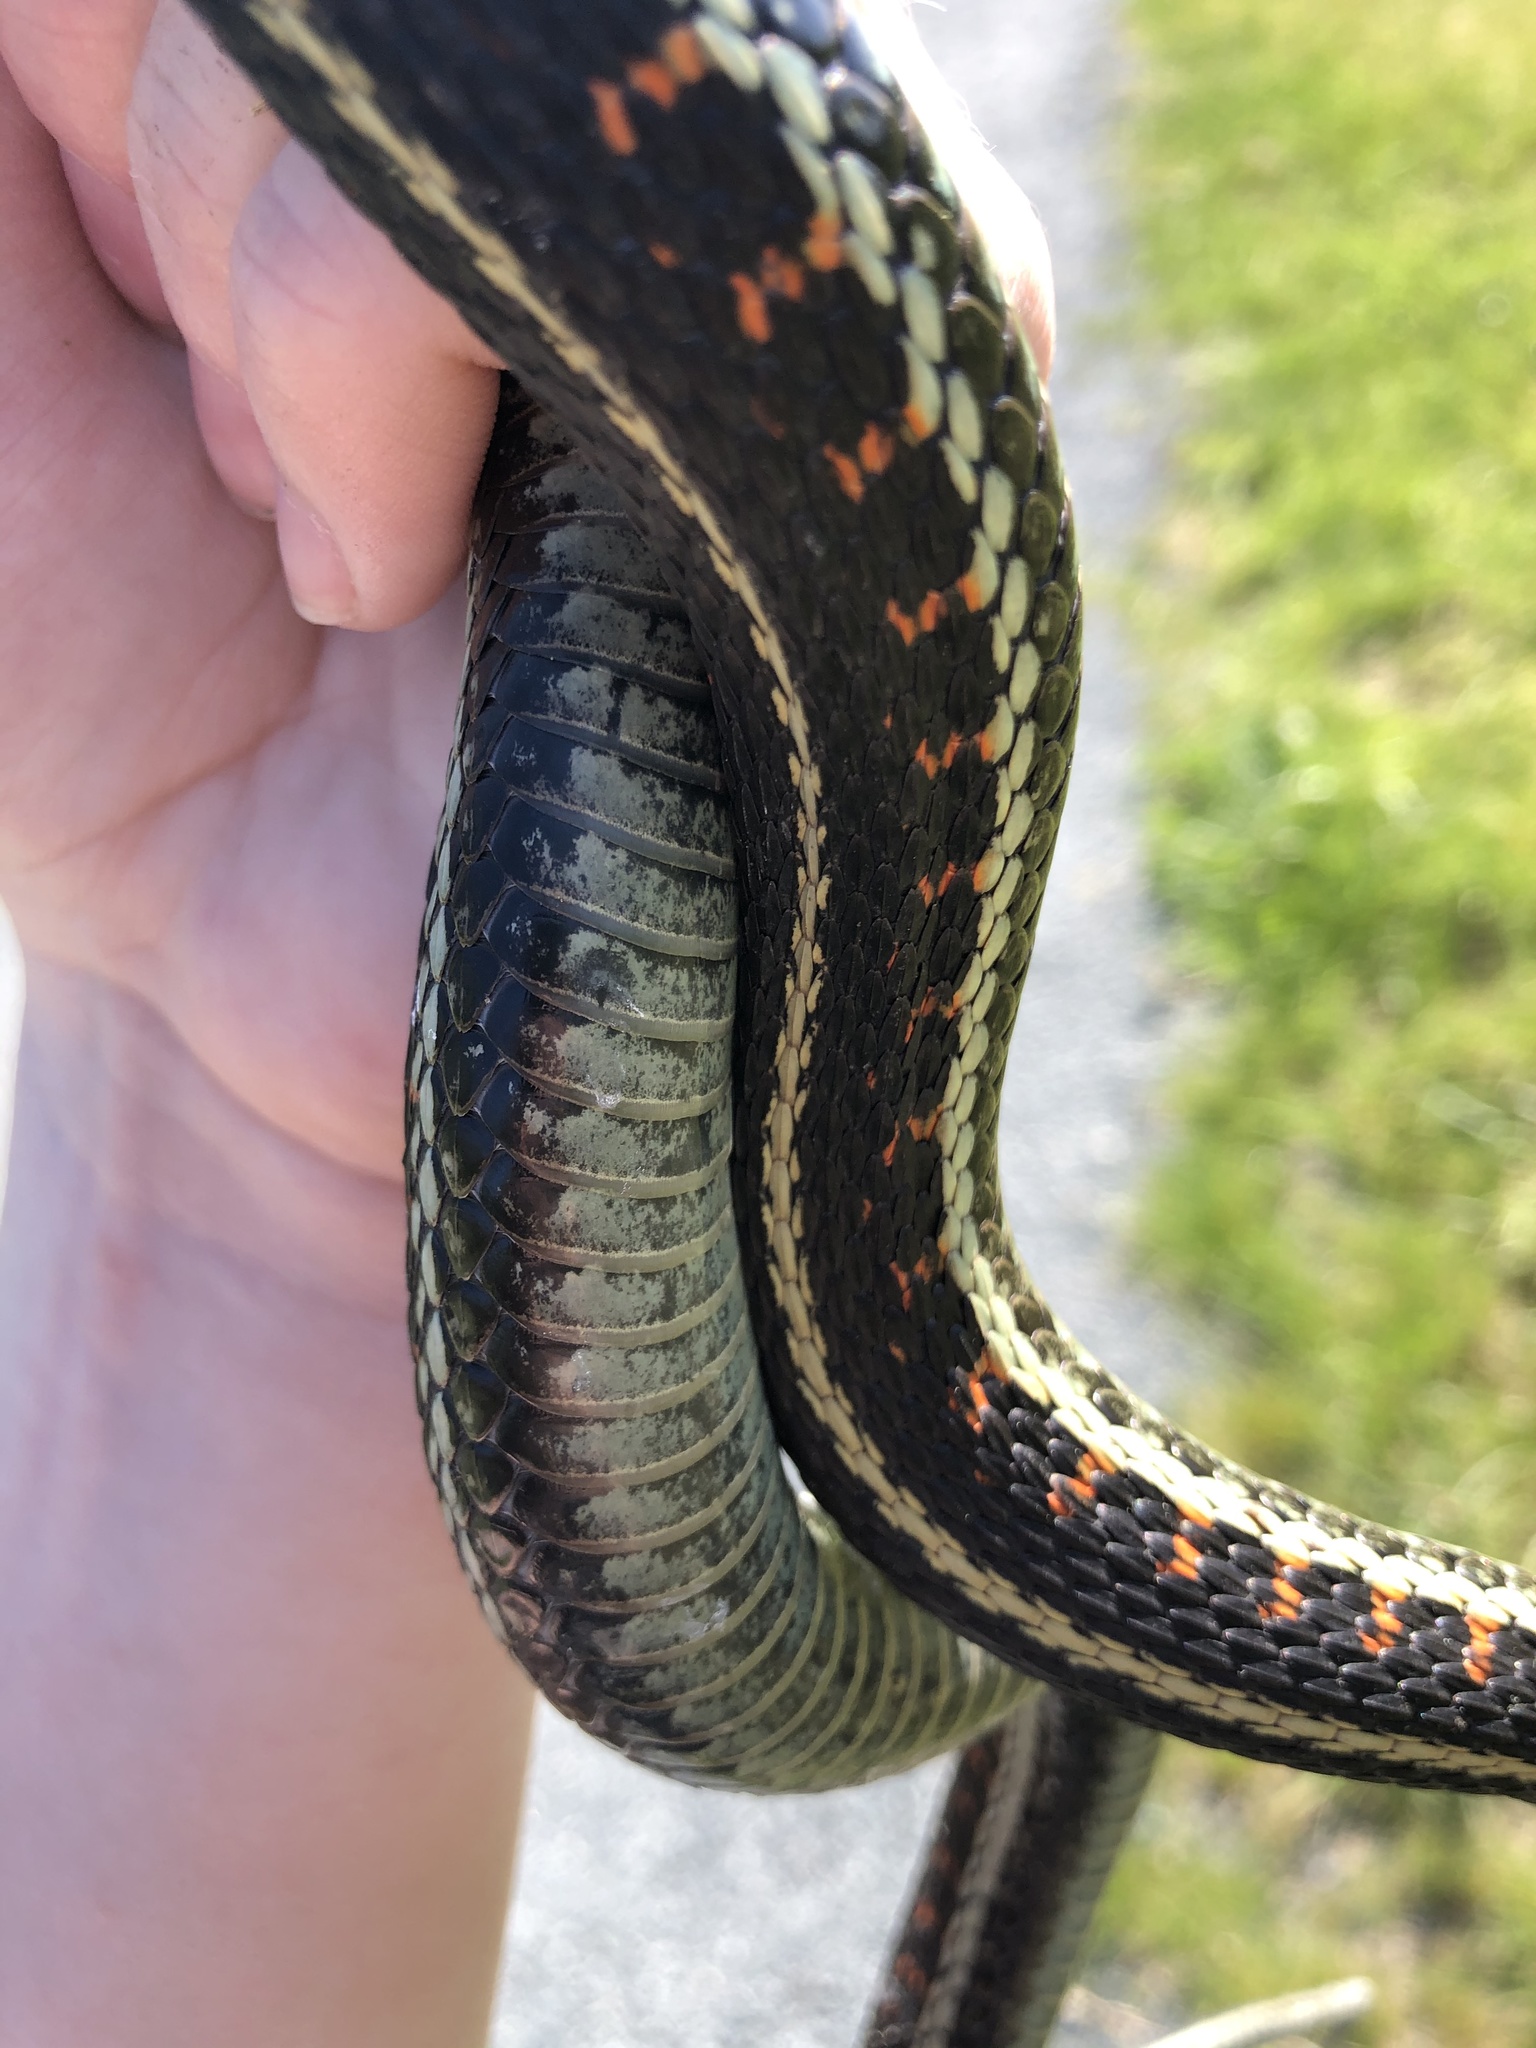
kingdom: Animalia
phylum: Chordata
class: Squamata
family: Colubridae
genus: Thamnophis
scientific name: Thamnophis sirtalis
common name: Common garter snake
